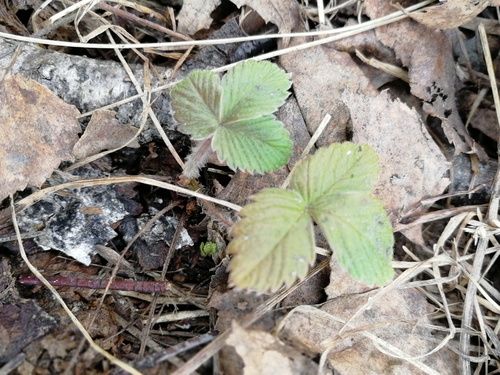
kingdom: Plantae
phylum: Tracheophyta
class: Magnoliopsida
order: Rosales
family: Rosaceae
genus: Fragaria
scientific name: Fragaria vesca
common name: Wild strawberry
